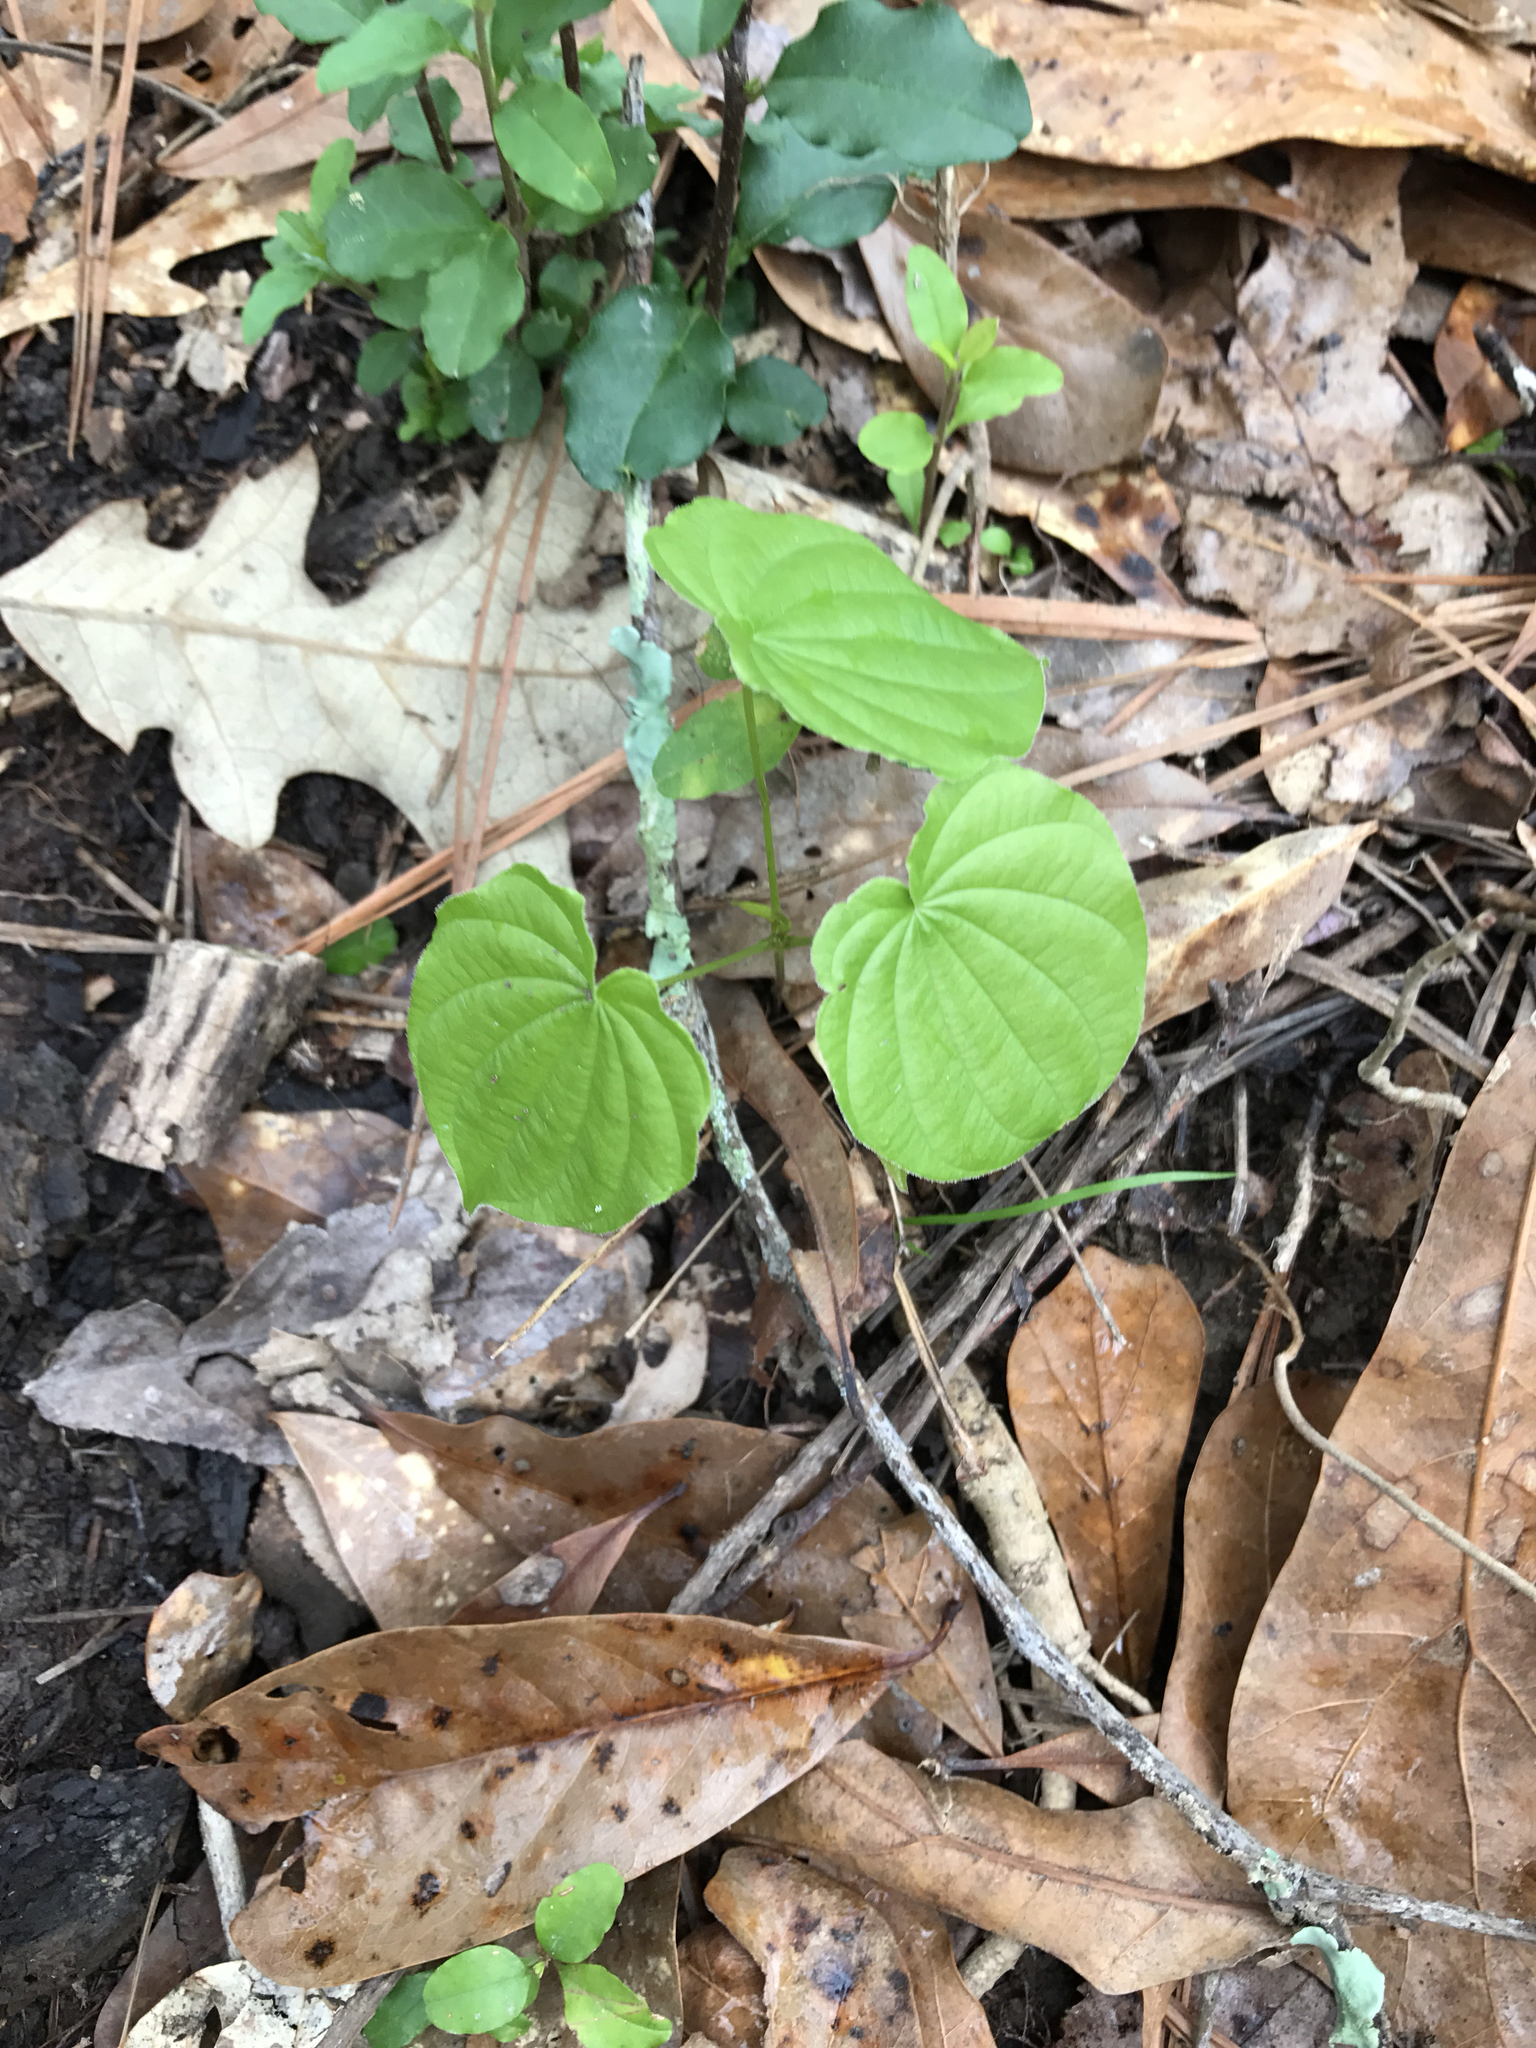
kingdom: Plantae
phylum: Tracheophyta
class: Liliopsida
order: Dioscoreales
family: Dioscoreaceae
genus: Dioscorea
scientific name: Dioscorea villosa
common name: Wild yam
